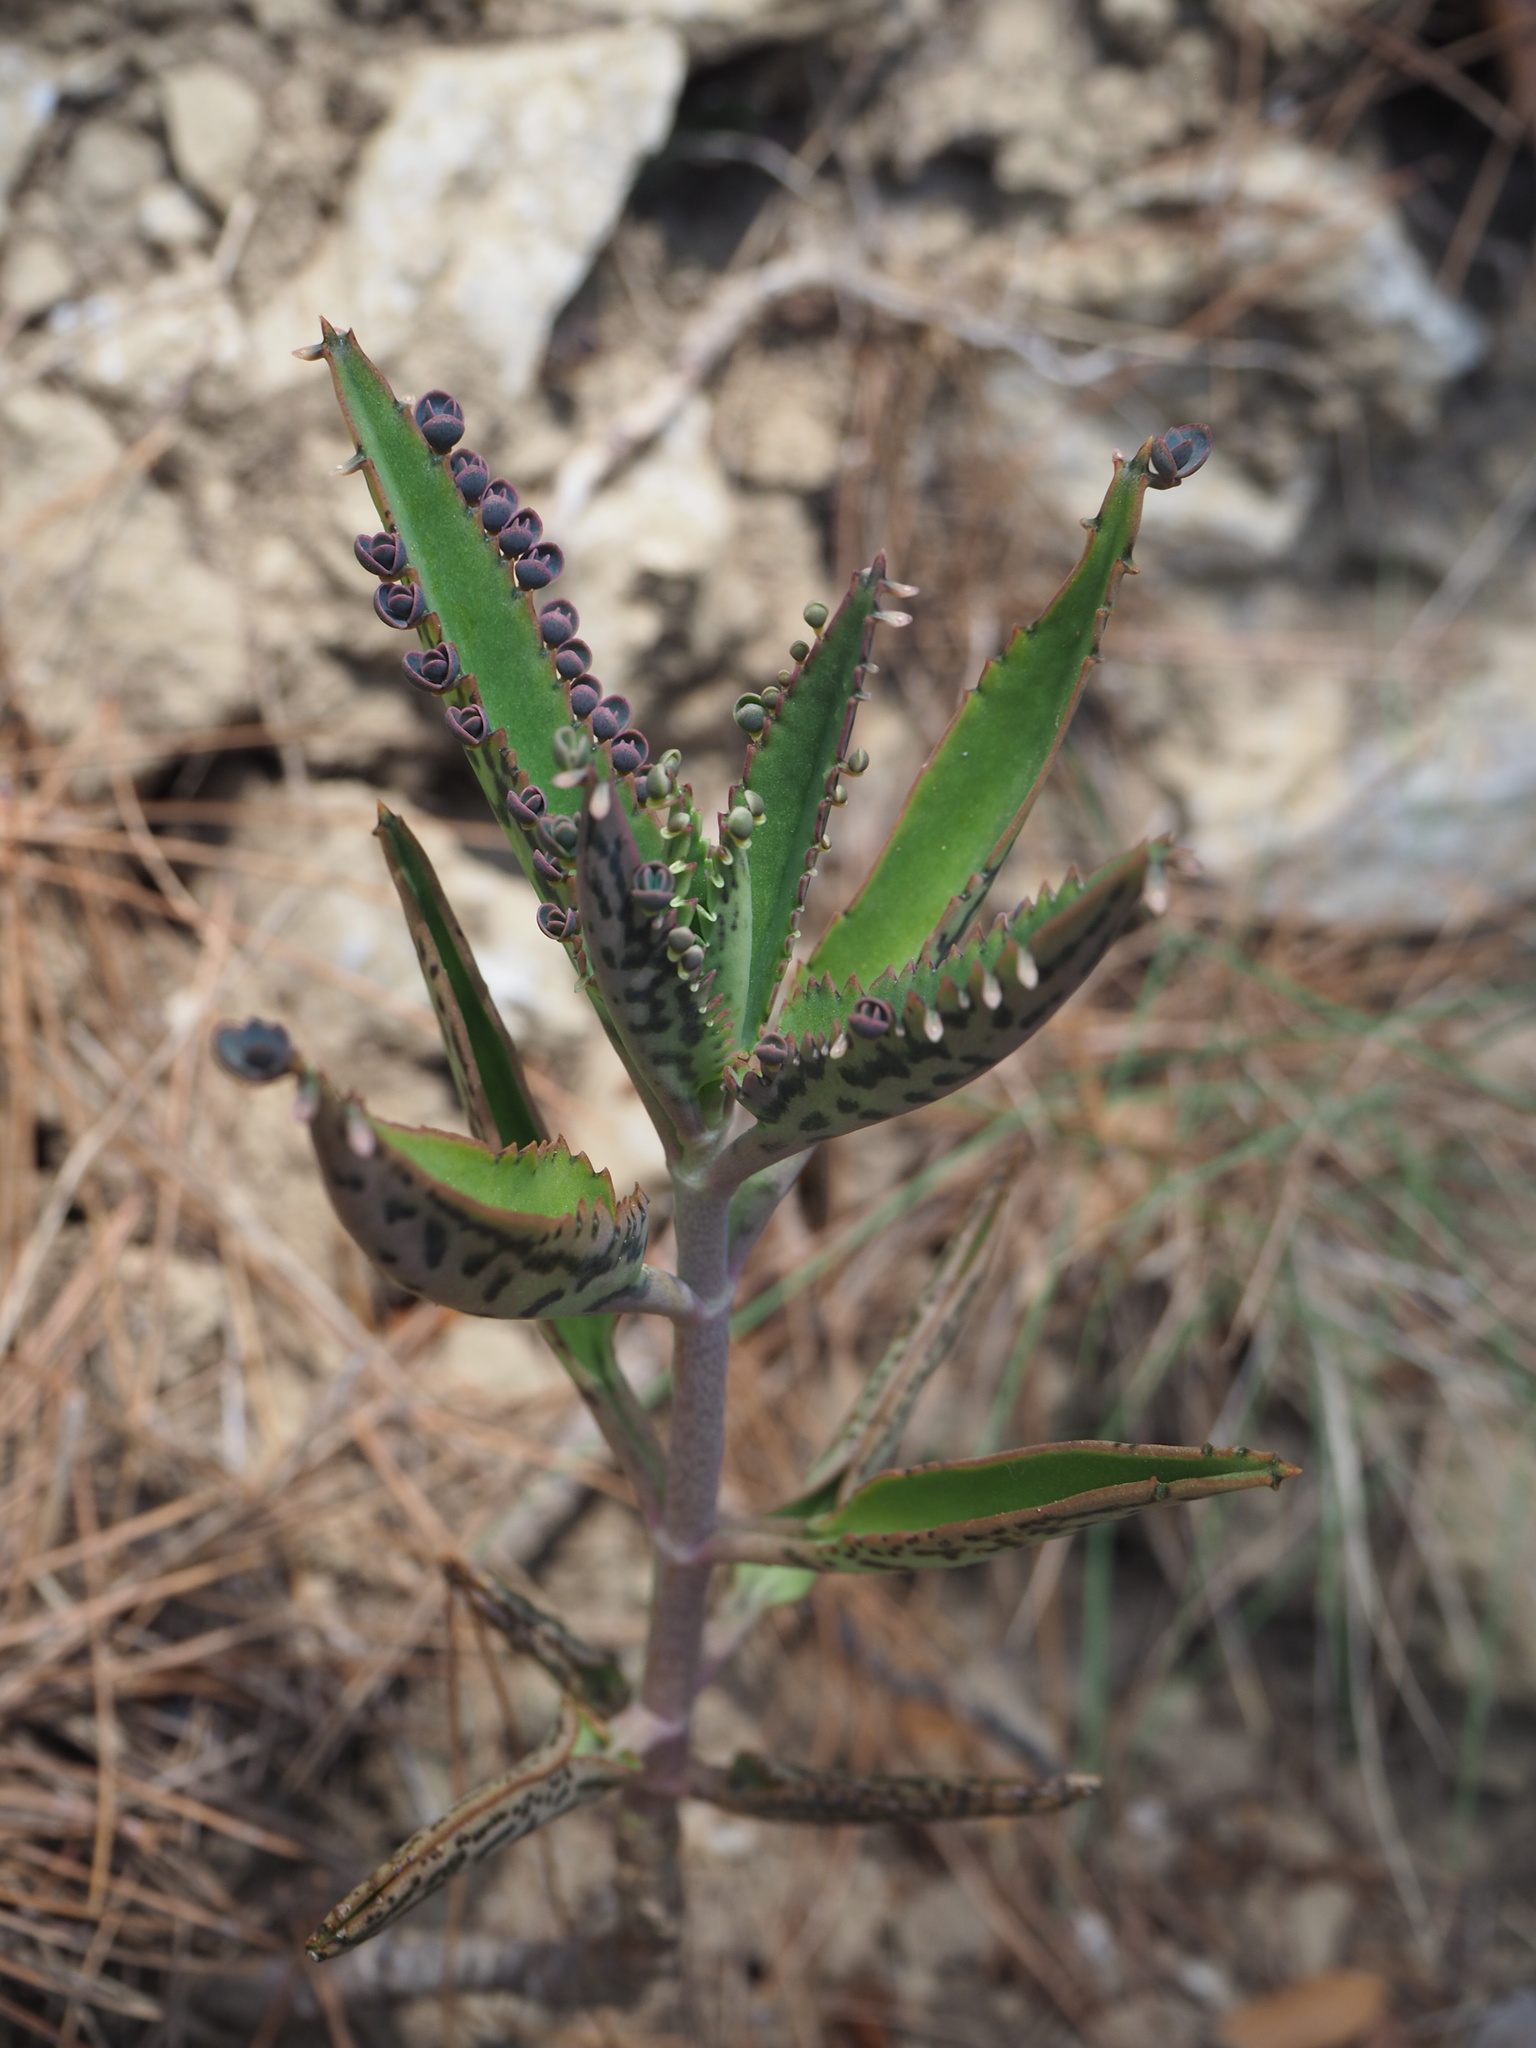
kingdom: Plantae
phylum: Tracheophyta
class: Magnoliopsida
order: Saxifragales
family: Crassulaceae
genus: Kalanchoe
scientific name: Kalanchoe houghtonii
